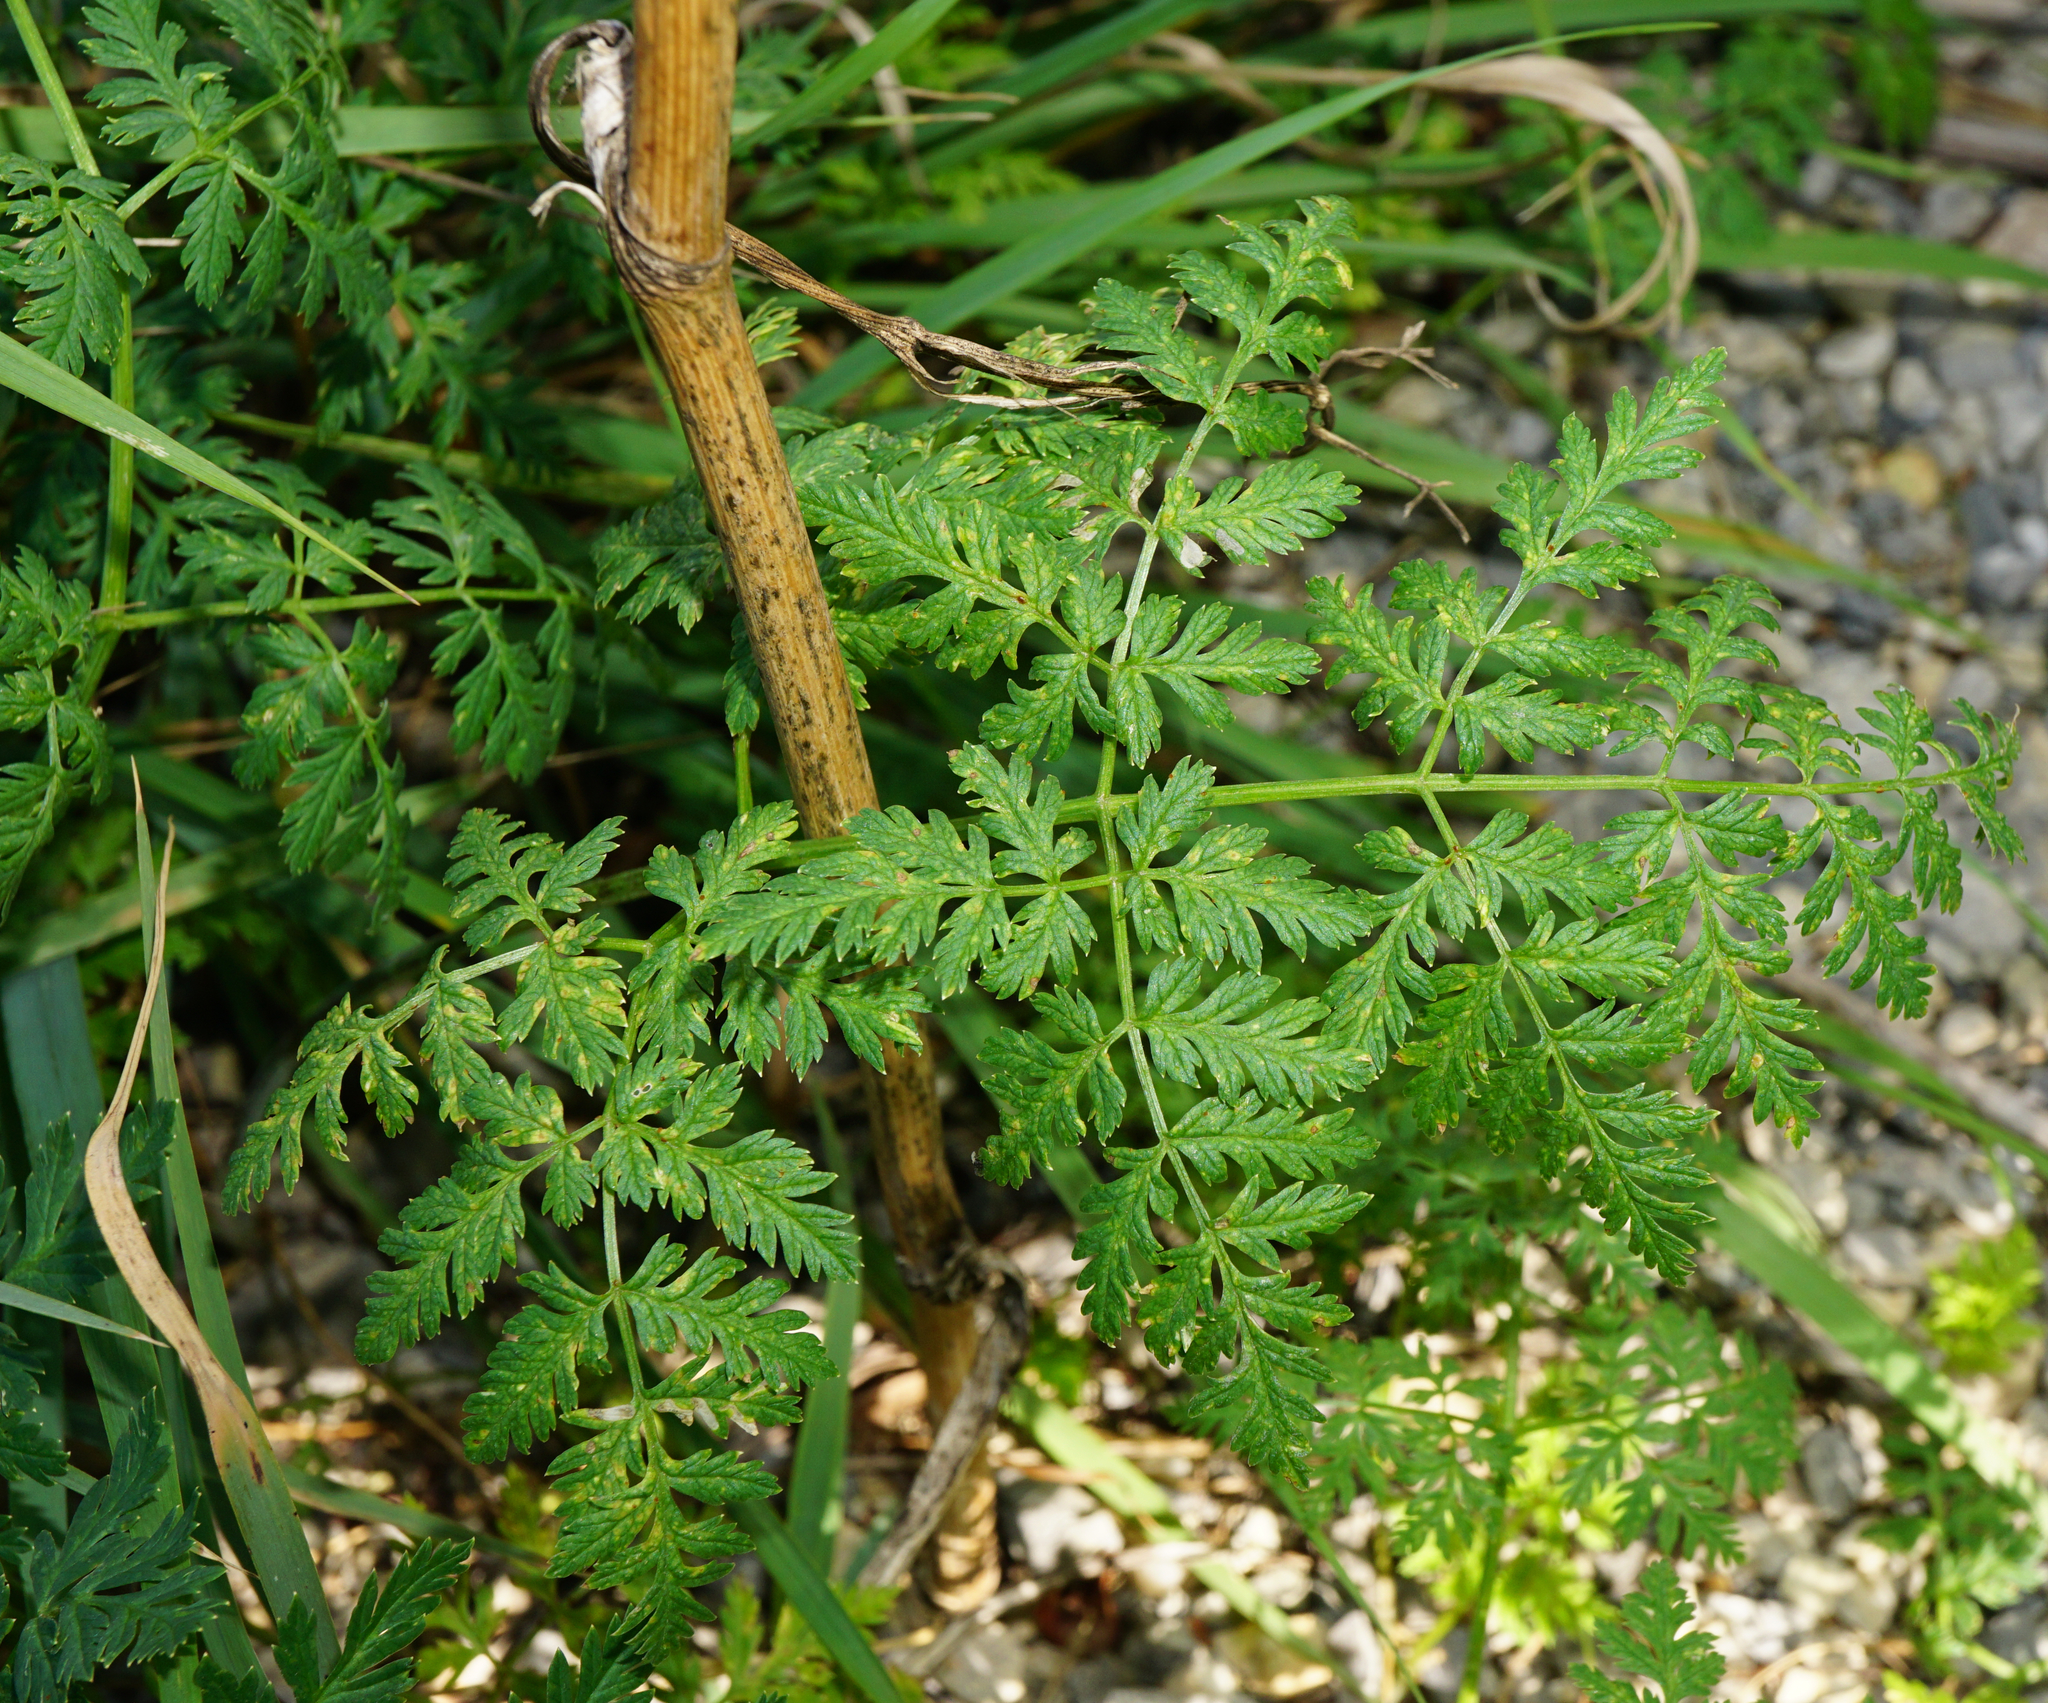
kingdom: Plantae
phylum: Tracheophyta
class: Magnoliopsida
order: Apiales
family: Apiaceae
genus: Conium
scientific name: Conium maculatum
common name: Hemlock
